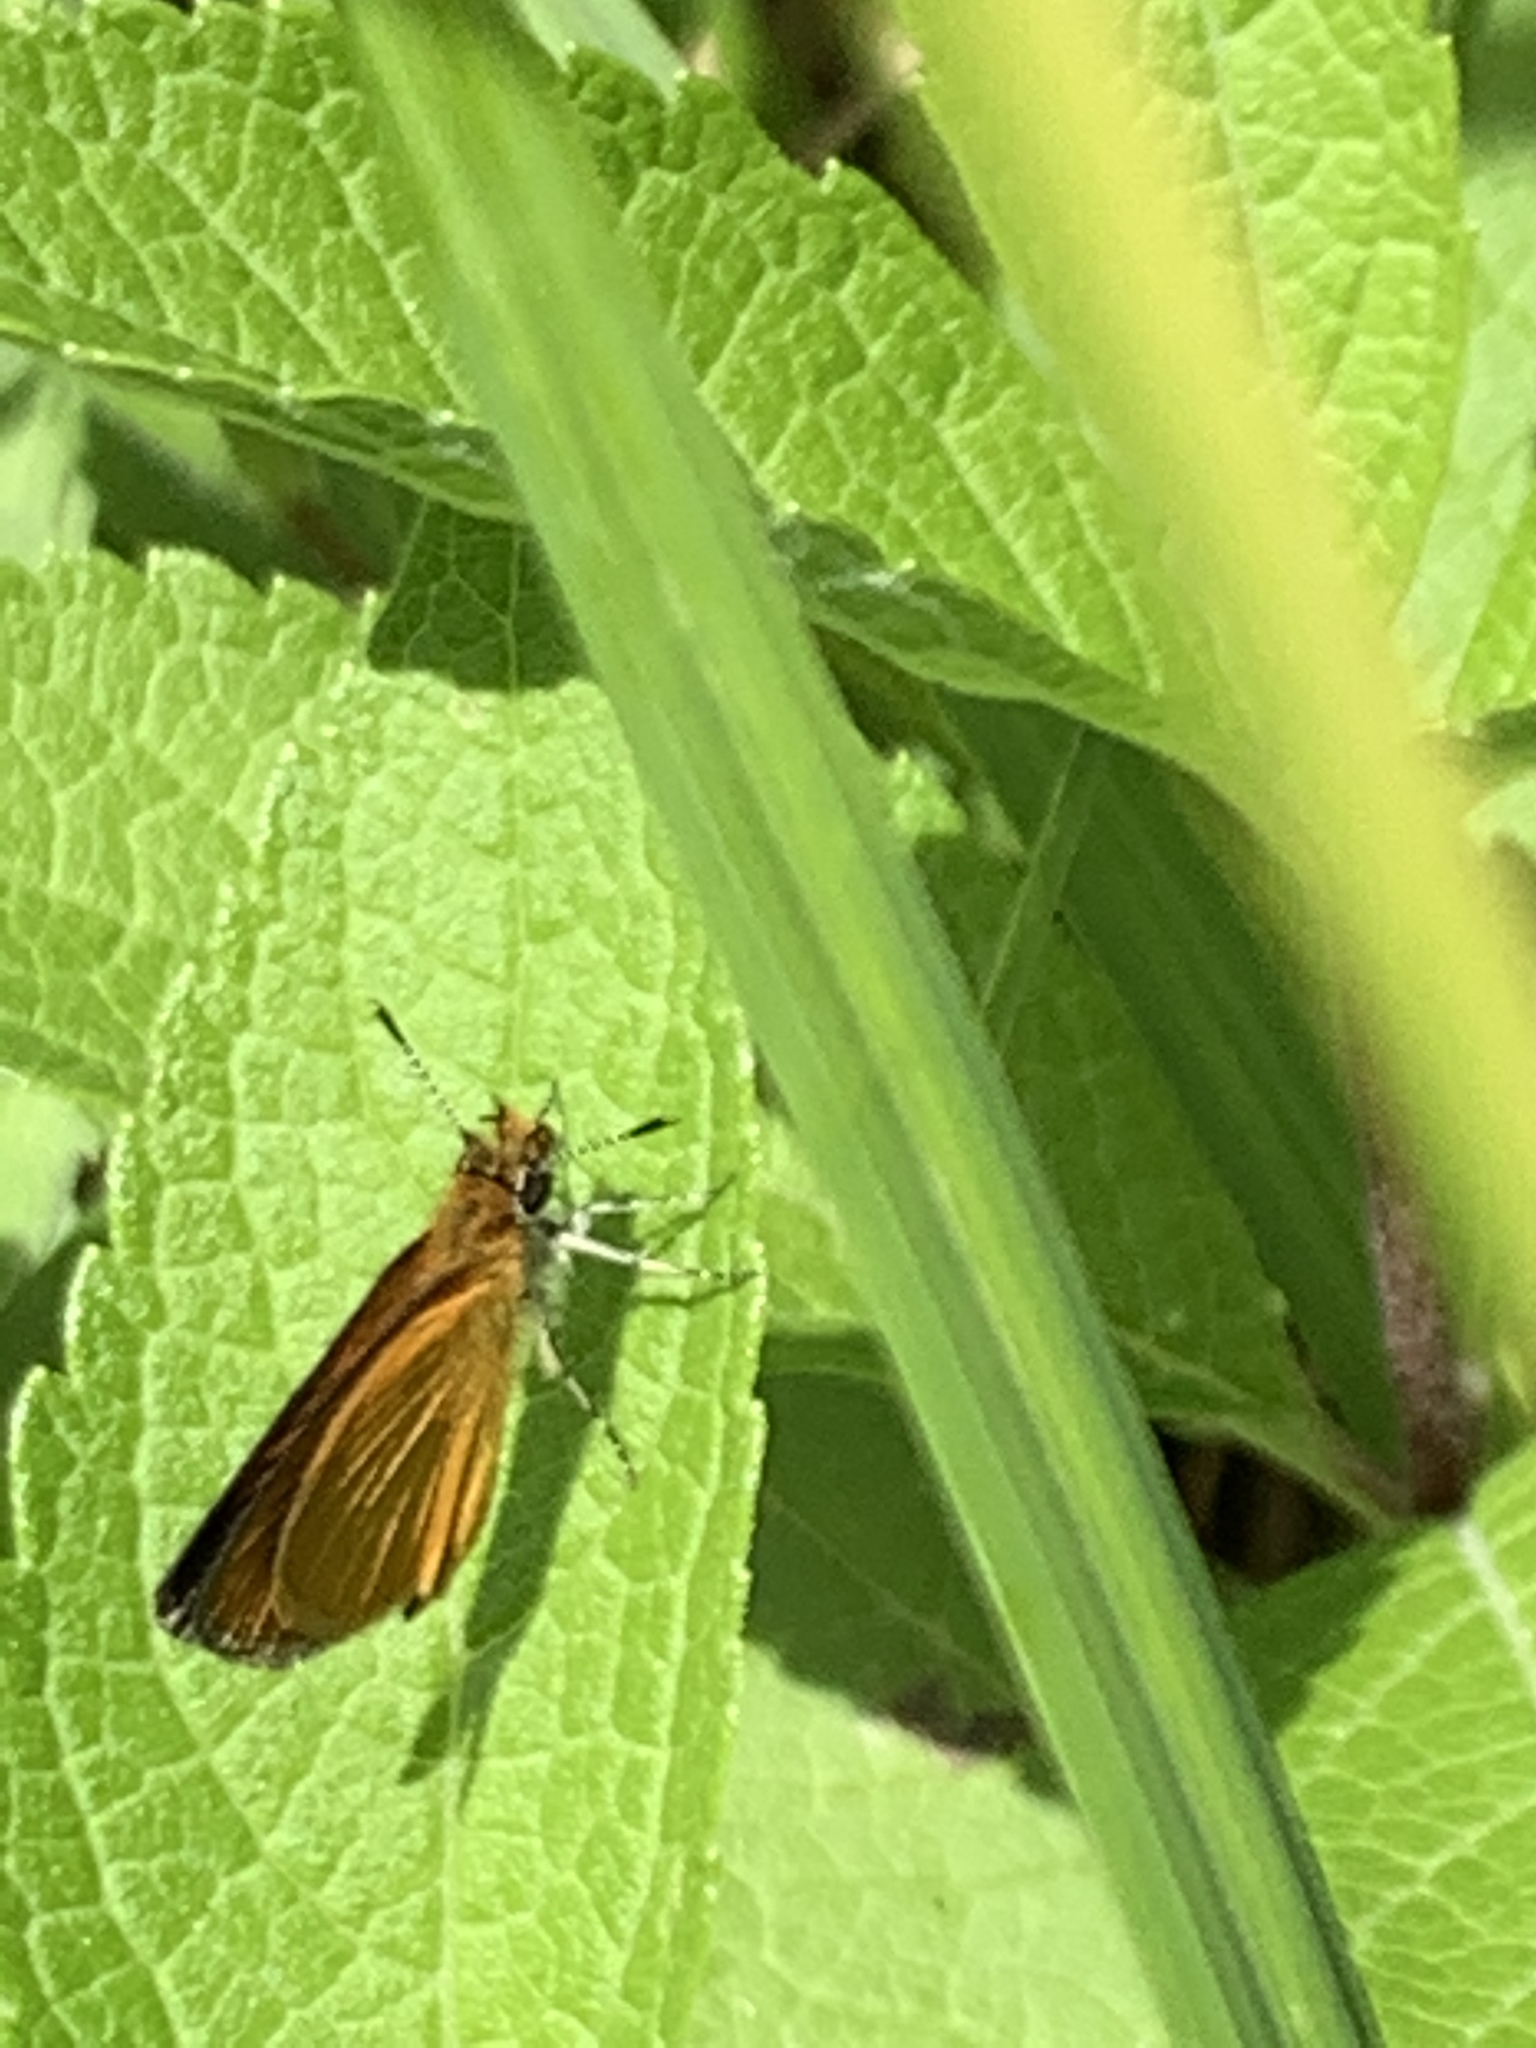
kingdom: Animalia
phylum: Arthropoda
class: Insecta
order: Lepidoptera
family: Hesperiidae
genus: Ancyloxypha
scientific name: Ancyloxypha numitor
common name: Least skipper
